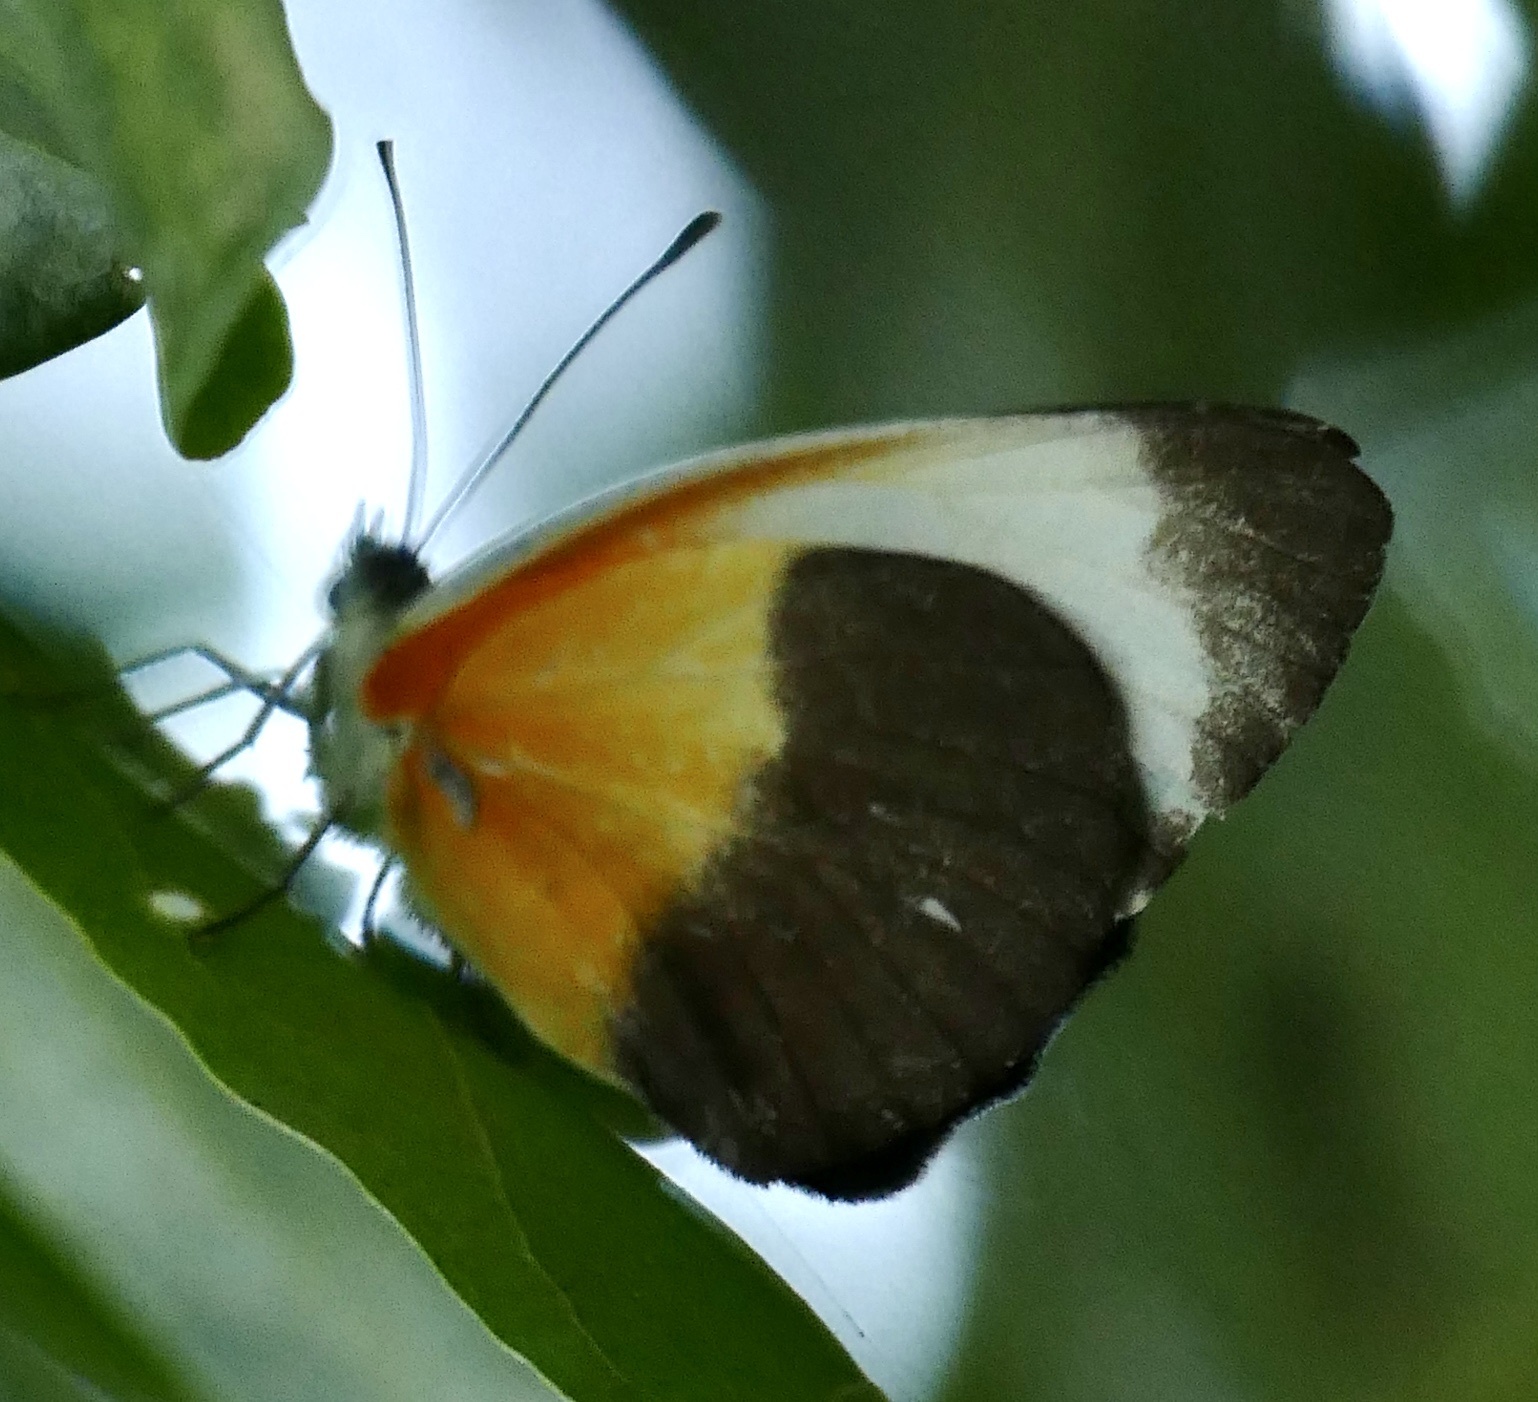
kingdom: Animalia
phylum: Arthropoda
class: Insecta
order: Lepidoptera
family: Pieridae
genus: Mylothris
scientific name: Mylothris chloris
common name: Western dotted border
